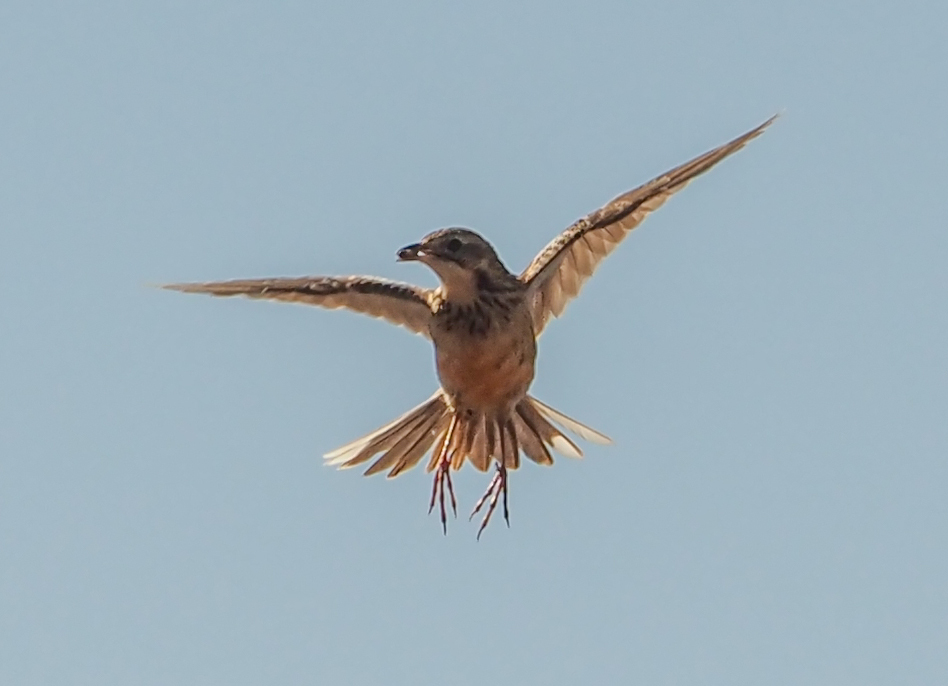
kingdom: Animalia
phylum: Chordata
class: Aves
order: Passeriformes
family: Motacillidae
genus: Macronyx
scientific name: Macronyx ameliae
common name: Rosy-throated longclaw
